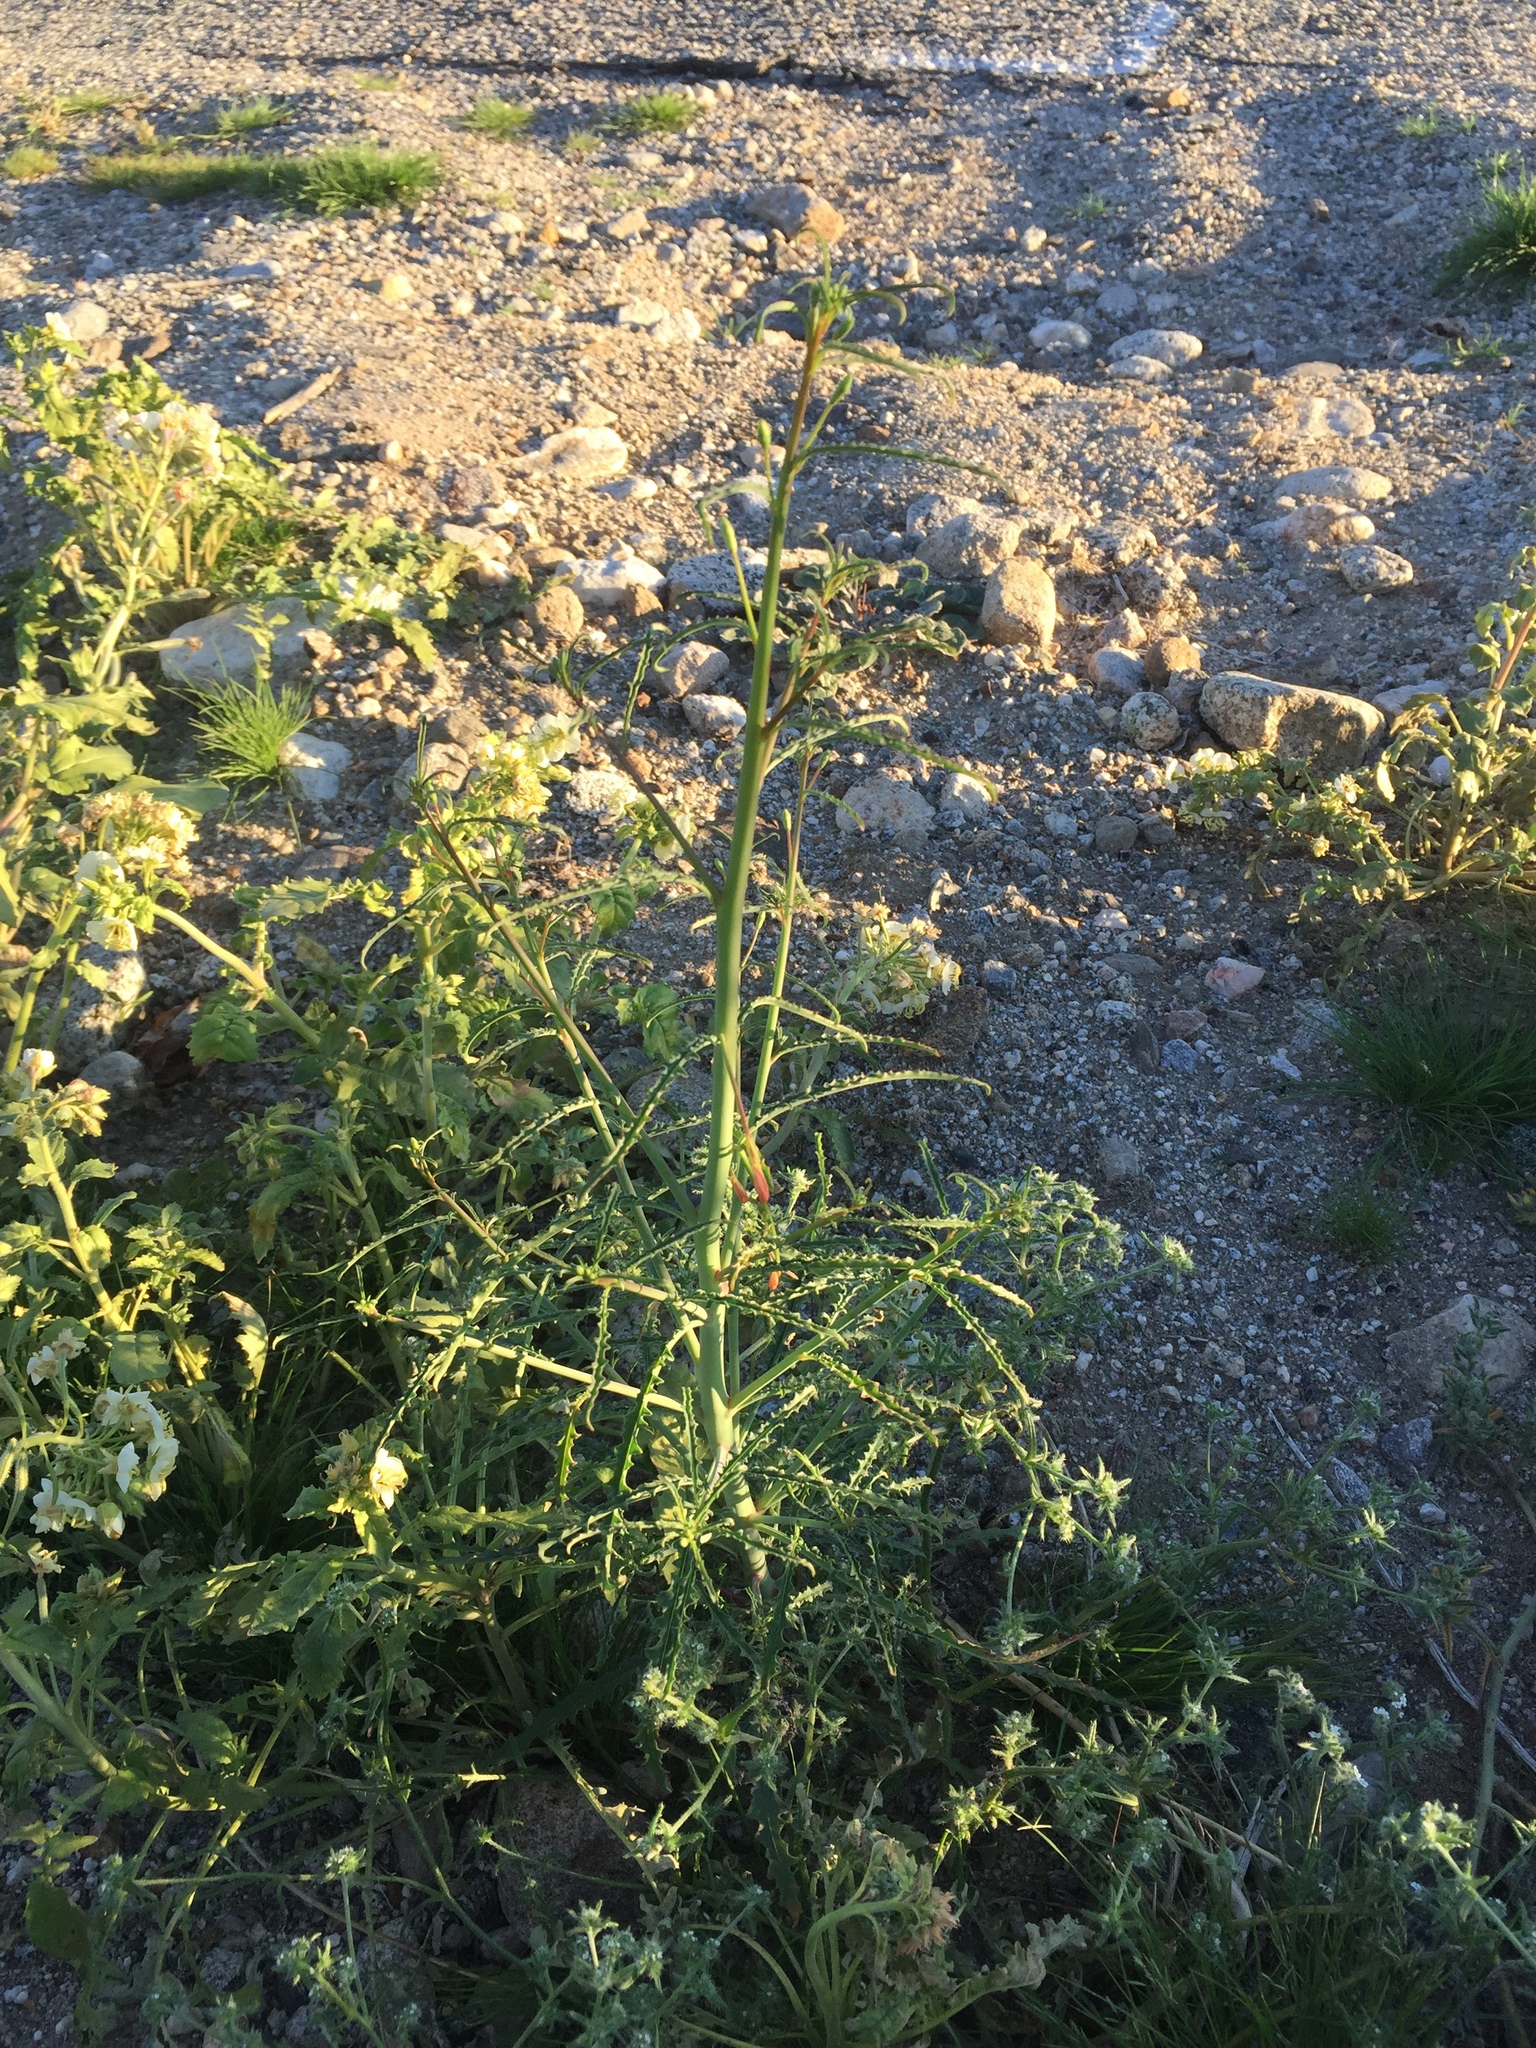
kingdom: Plantae
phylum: Tracheophyta
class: Magnoliopsida
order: Myrtales
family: Onagraceae
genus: Eulobus
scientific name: Eulobus californicus
